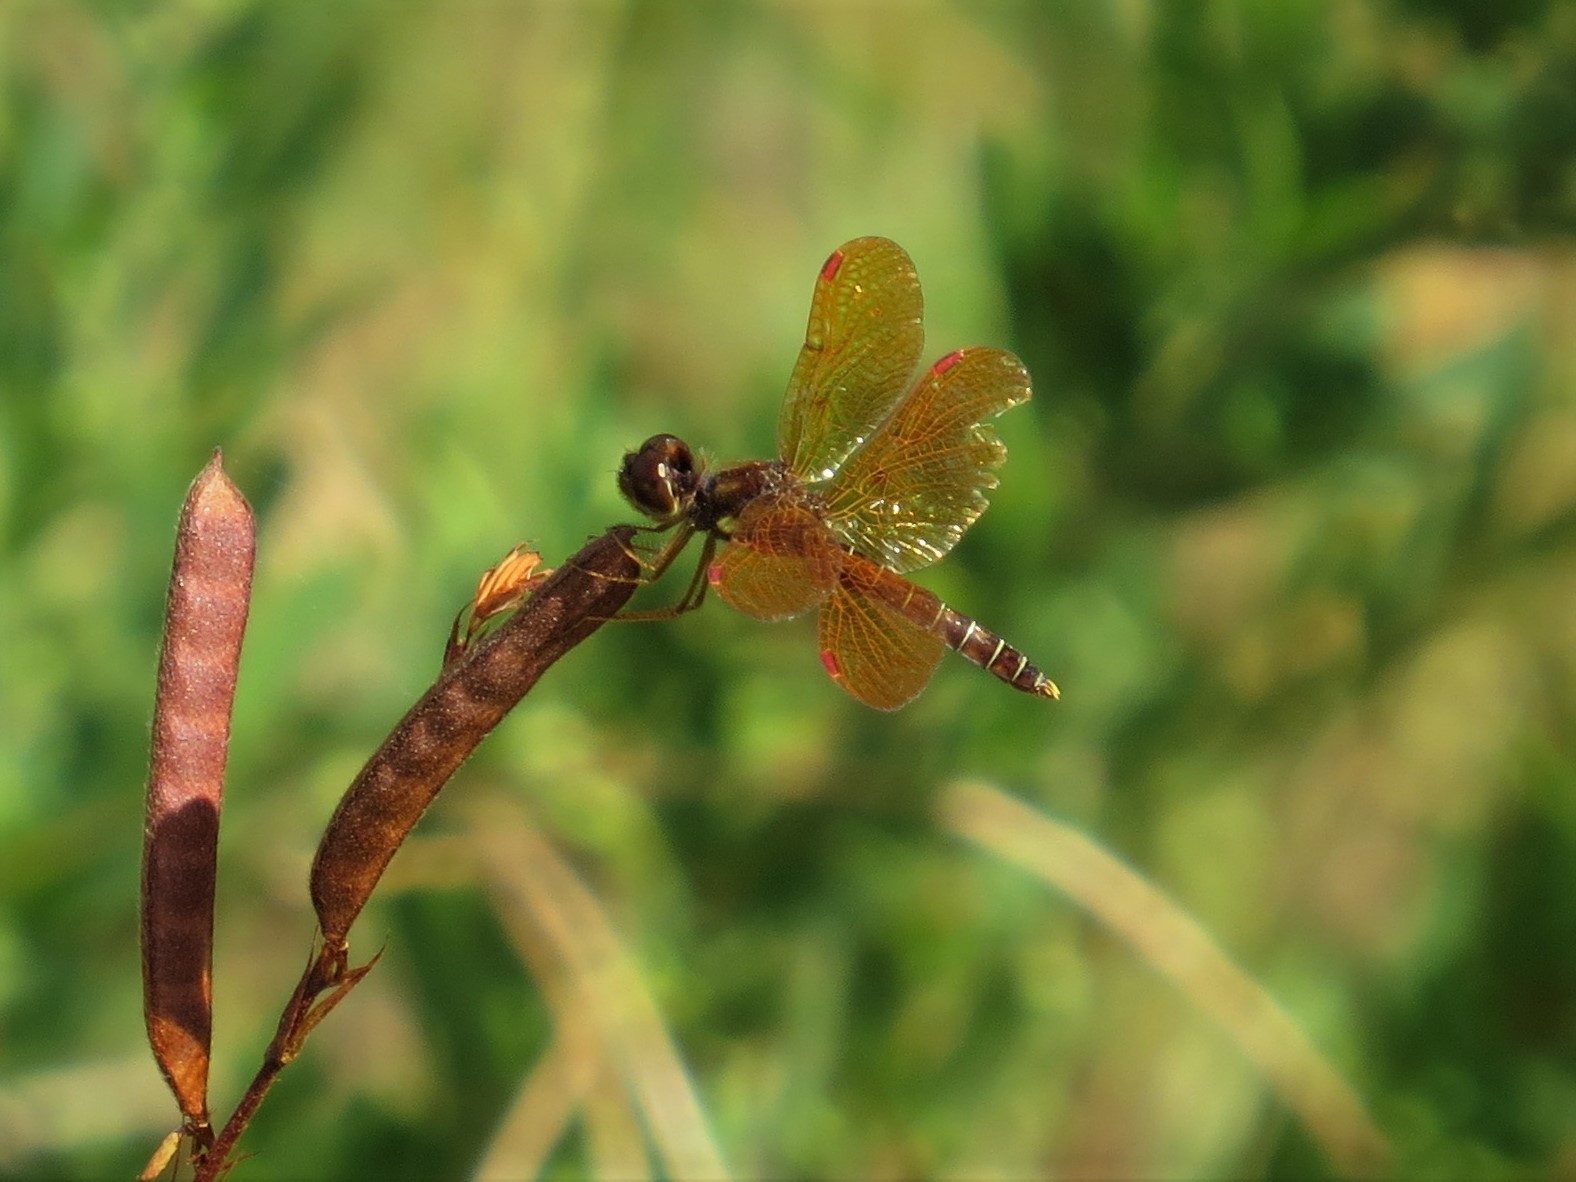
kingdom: Animalia
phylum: Arthropoda
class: Insecta
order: Odonata
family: Libellulidae
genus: Perithemis
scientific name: Perithemis tenera
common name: Eastern amberwing
